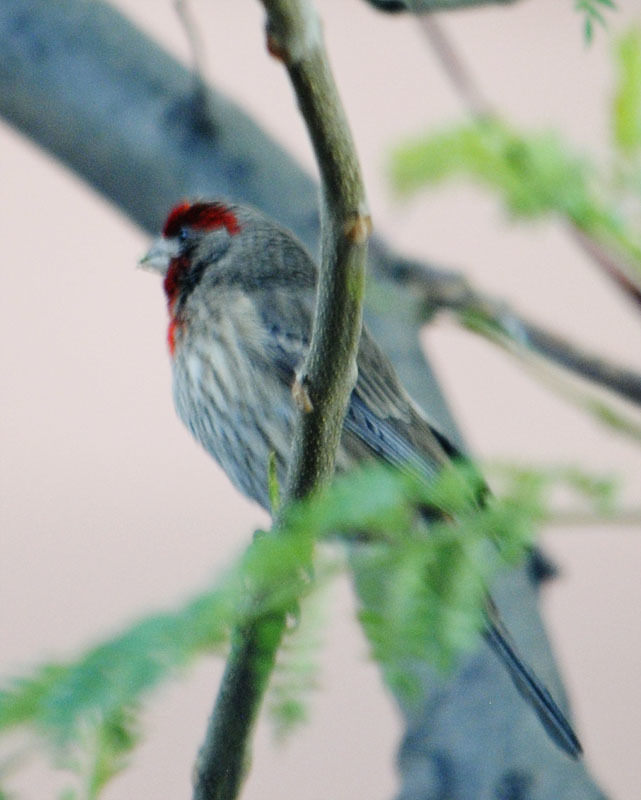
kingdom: Animalia
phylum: Chordata
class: Aves
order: Passeriformes
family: Fringillidae
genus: Haemorhous
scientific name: Haemorhous mexicanus
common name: House finch
